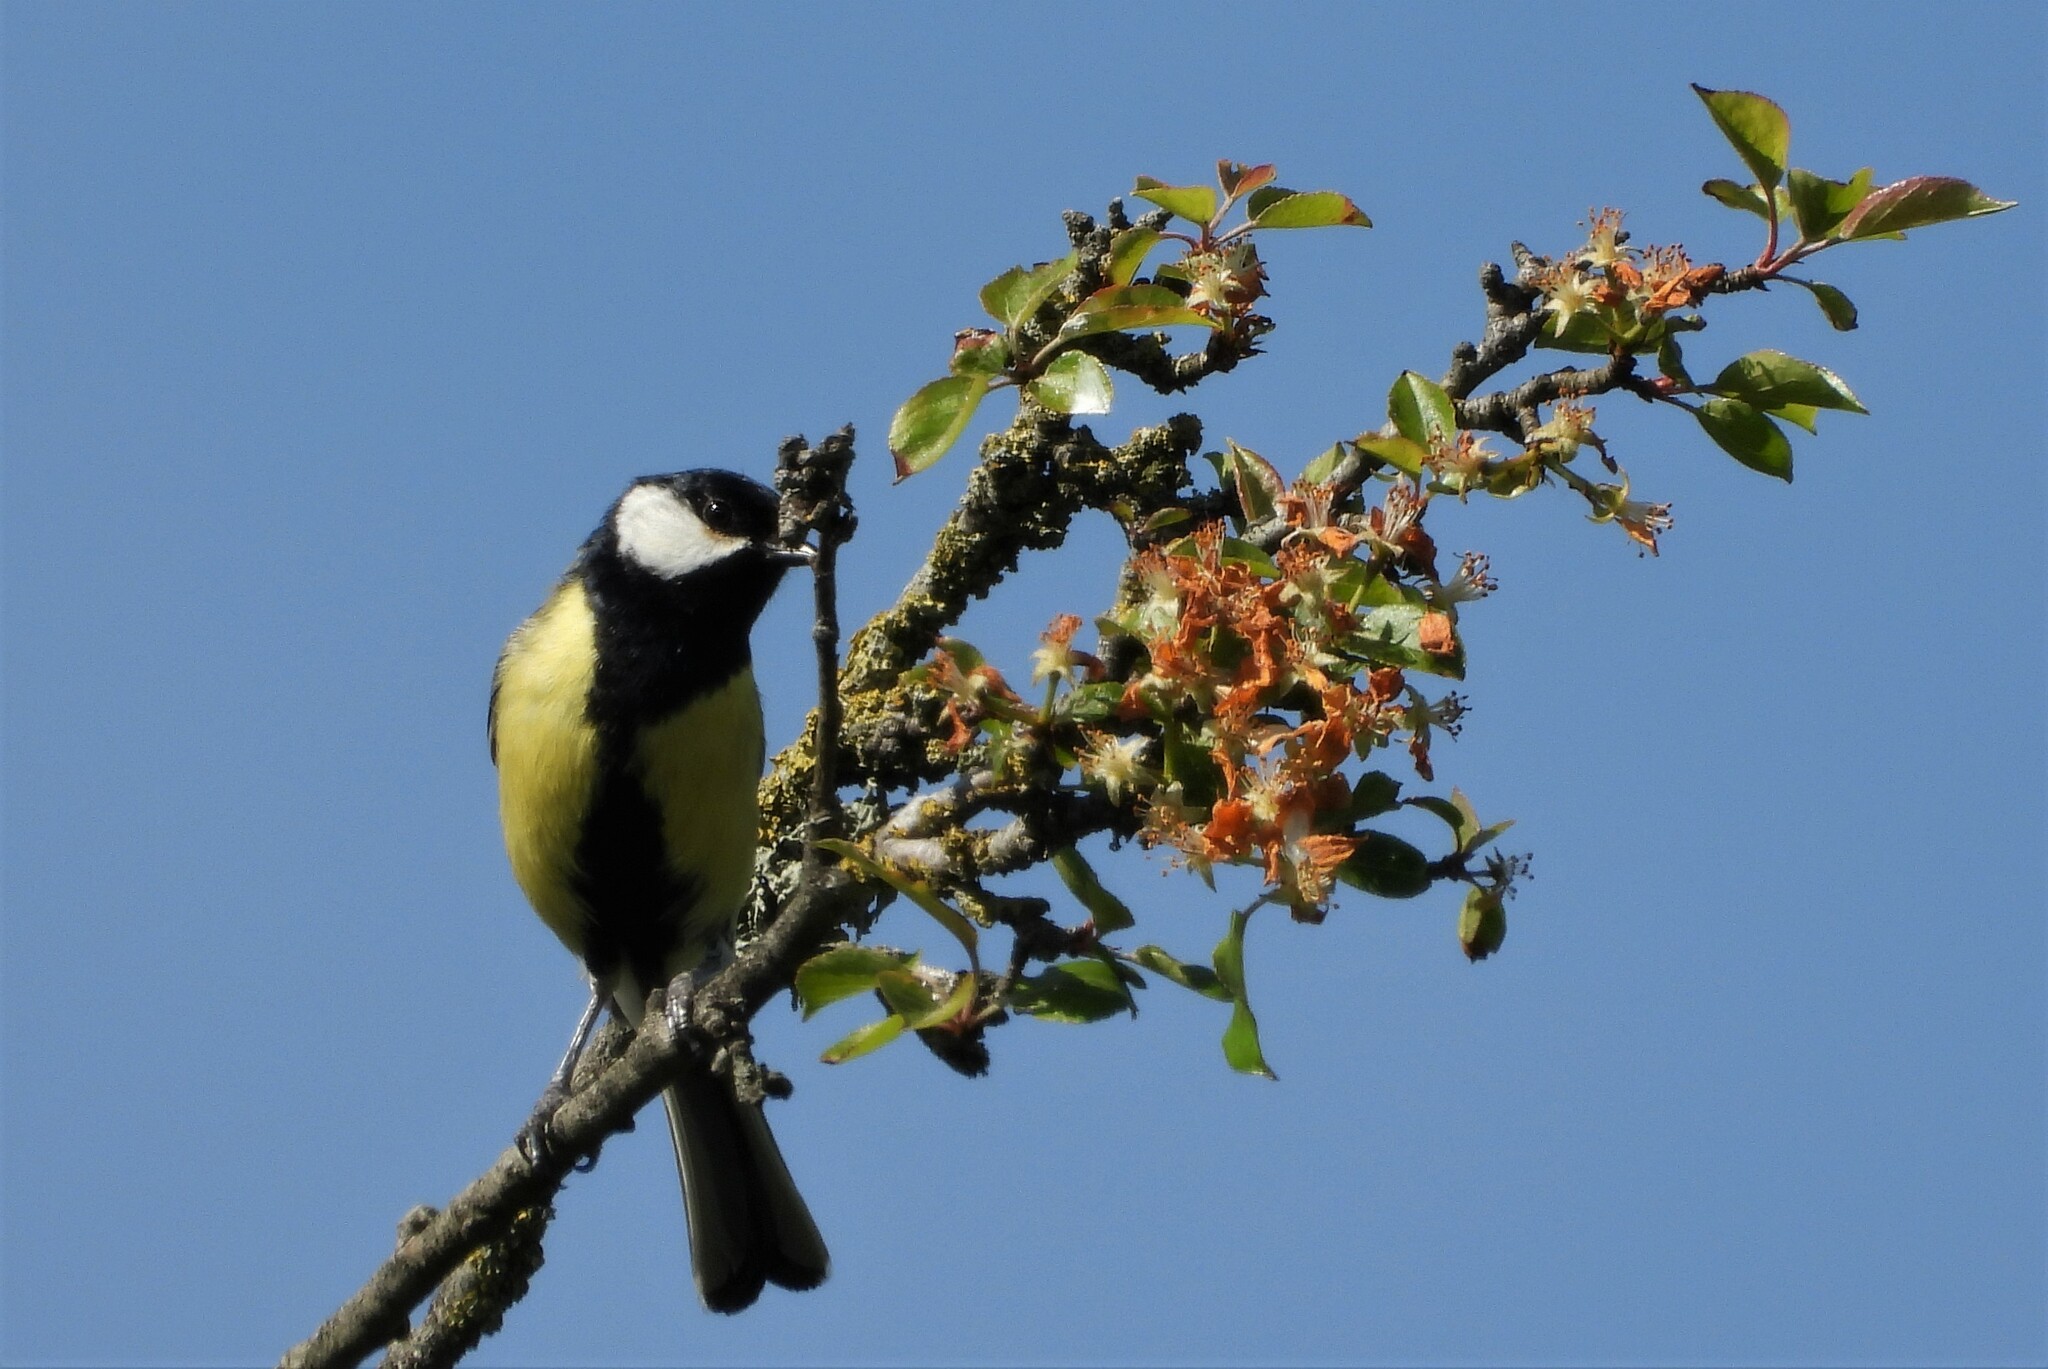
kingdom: Animalia
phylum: Chordata
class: Aves
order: Passeriformes
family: Paridae
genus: Parus
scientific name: Parus major
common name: Great tit
